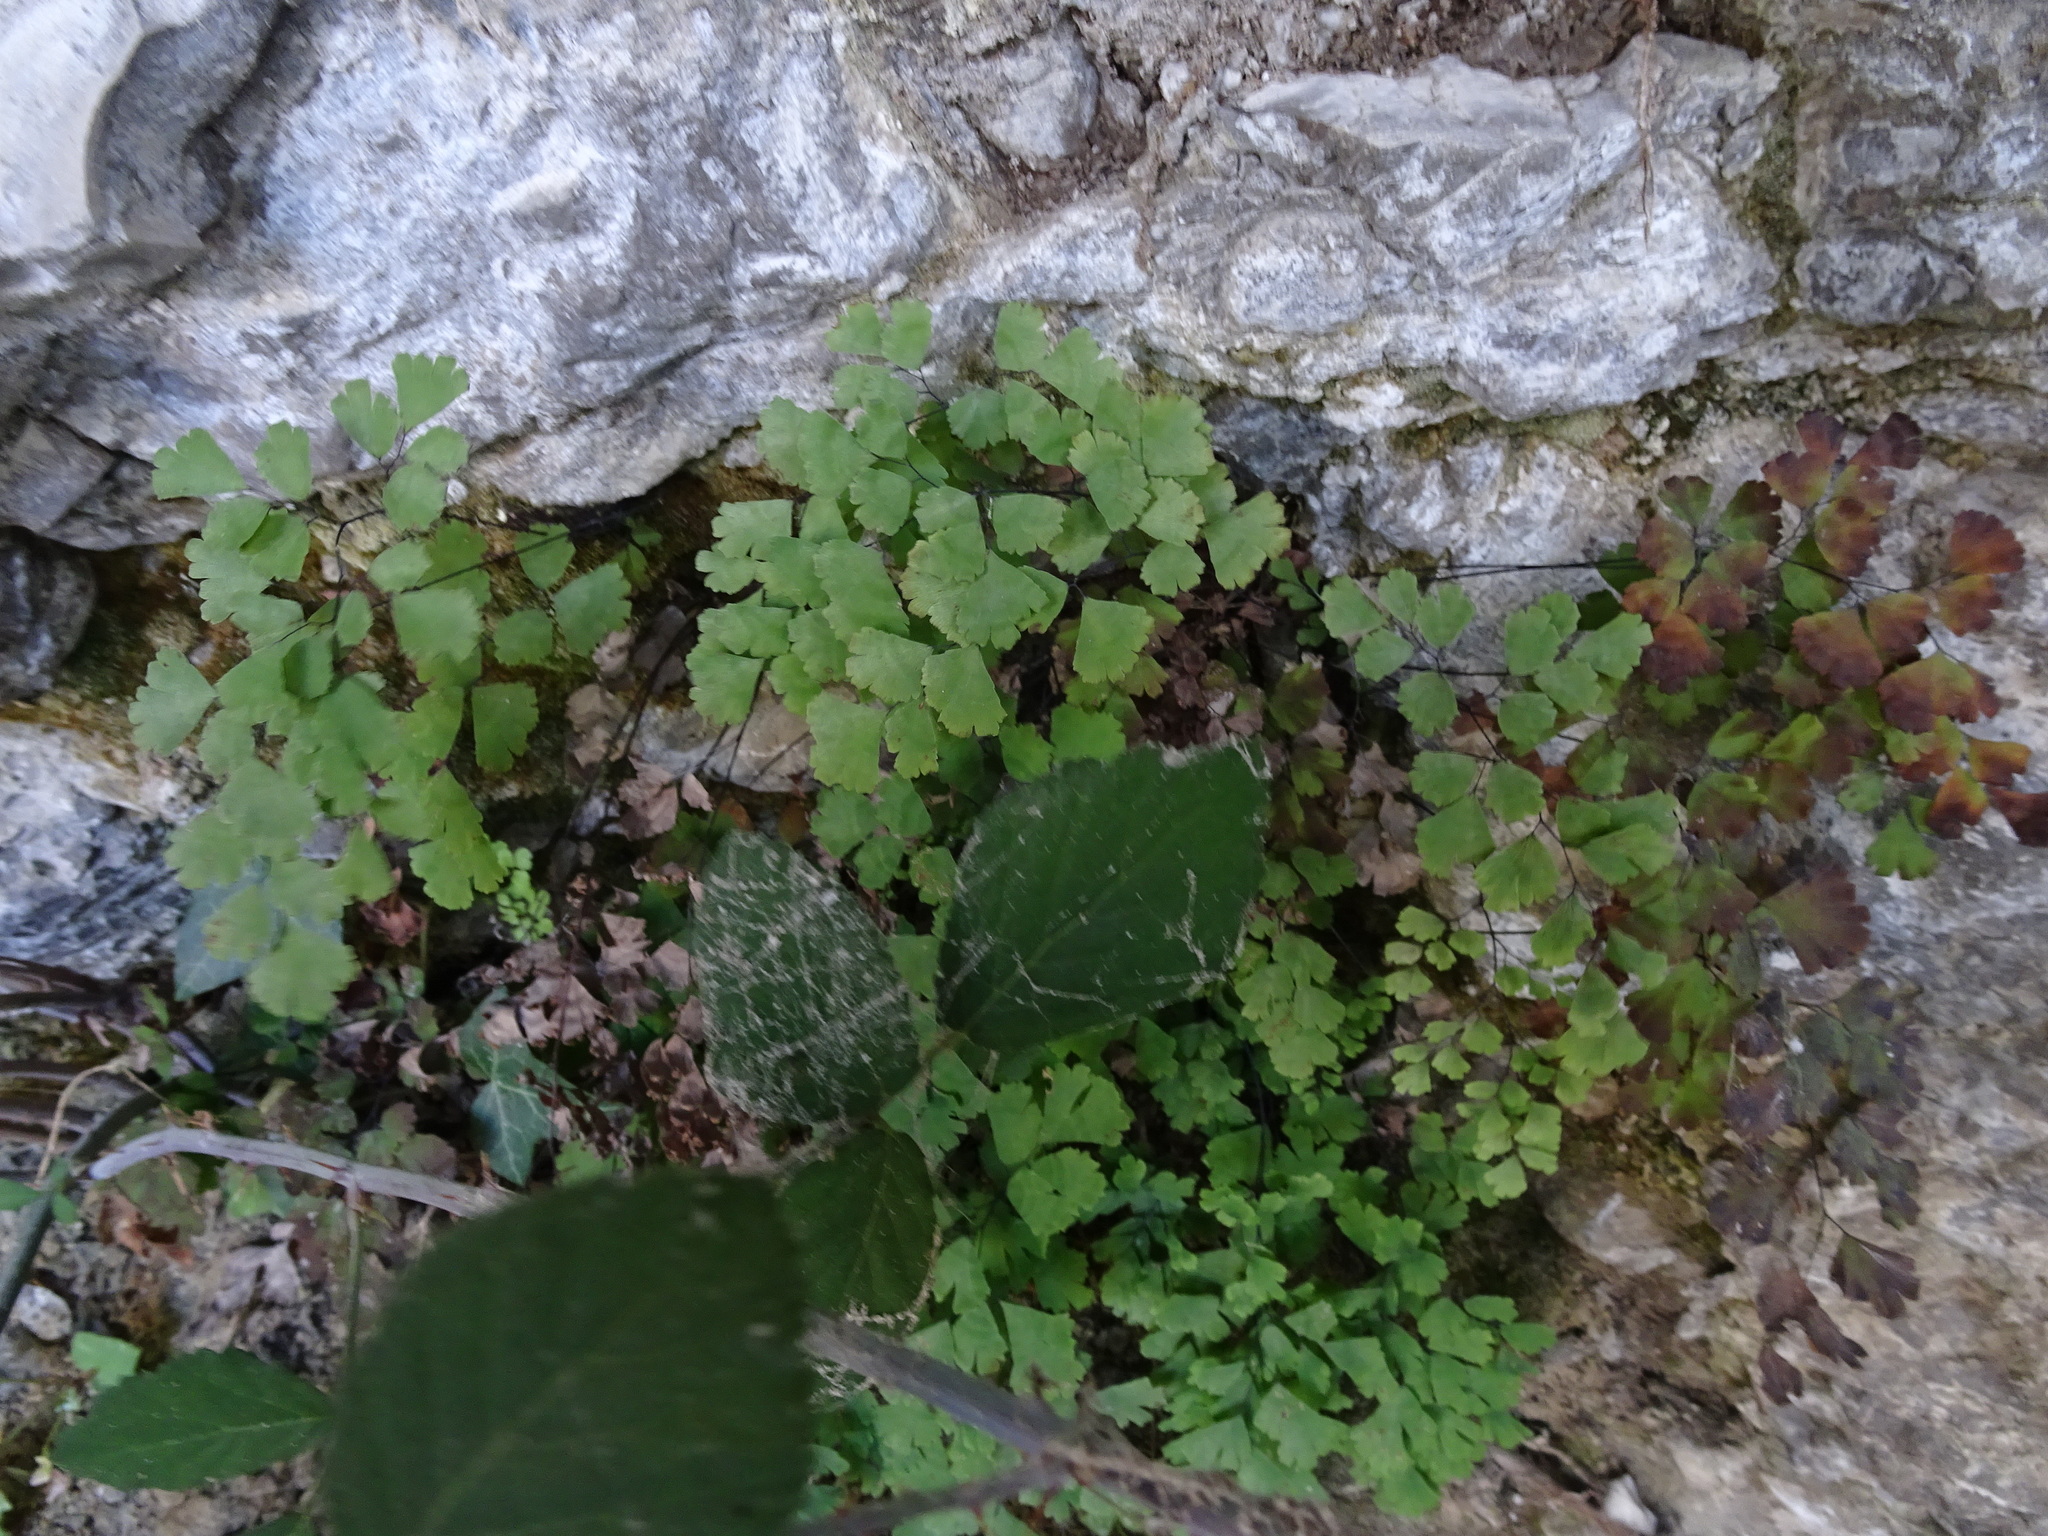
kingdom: Plantae
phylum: Tracheophyta
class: Polypodiopsida
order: Polypodiales
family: Pteridaceae
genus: Adiantum
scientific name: Adiantum capillus-veneris
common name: Maidenhair fern
